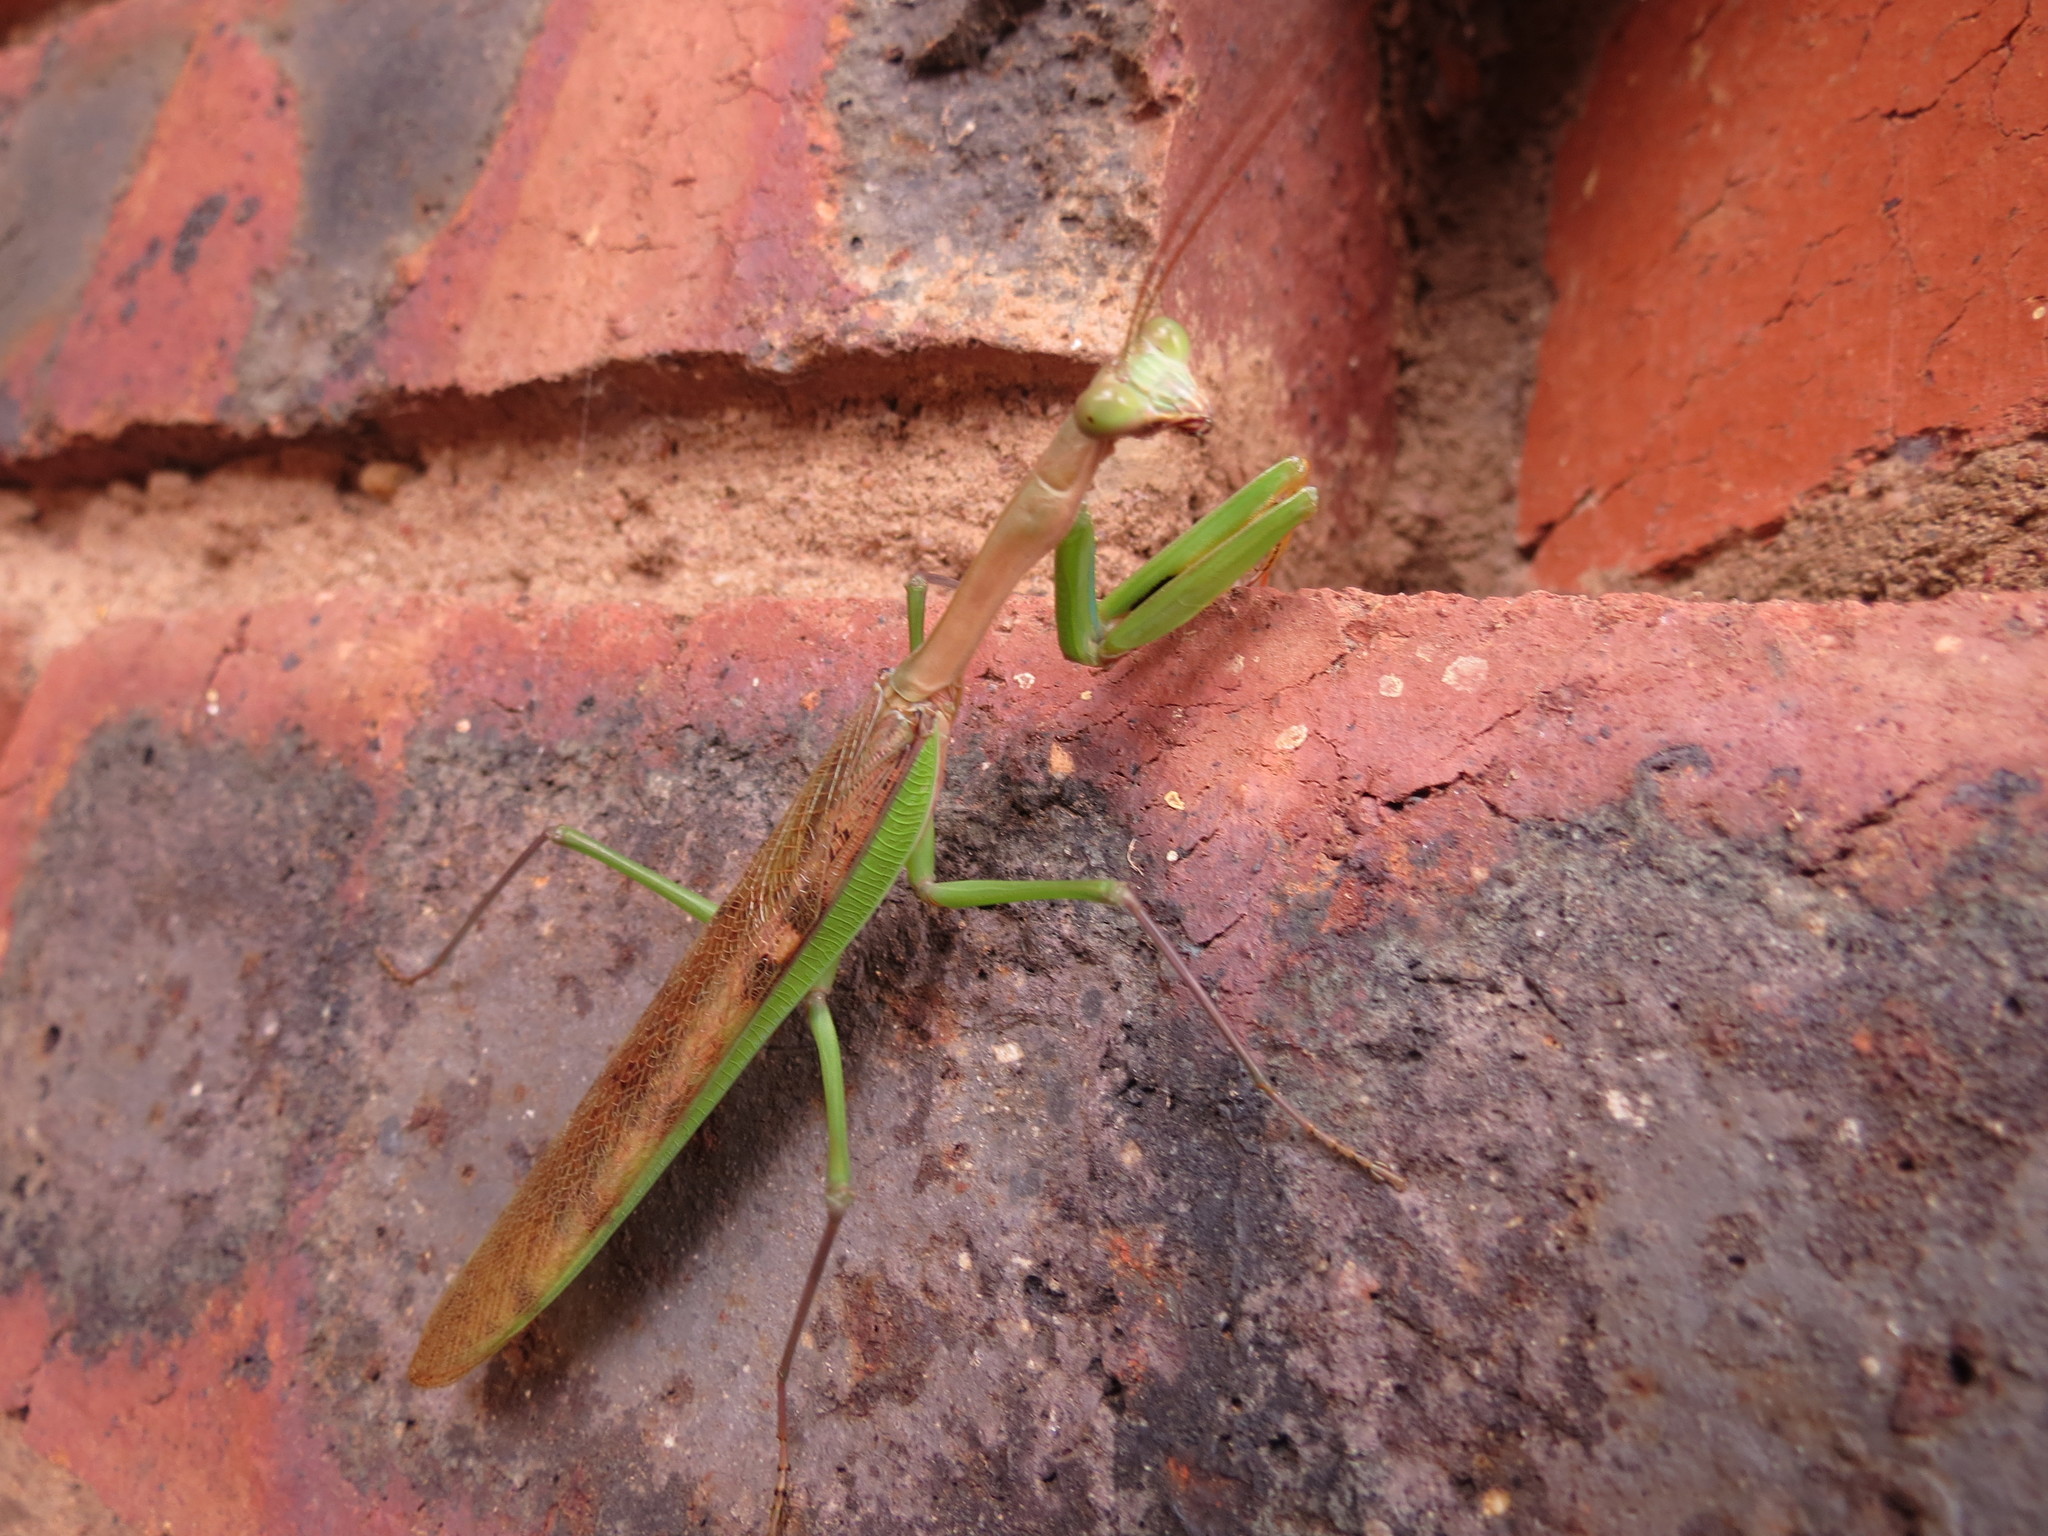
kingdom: Animalia
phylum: Arthropoda
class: Insecta
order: Mantodea
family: Mantidae
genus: Polyspilota
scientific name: Polyspilota aeruginosa
